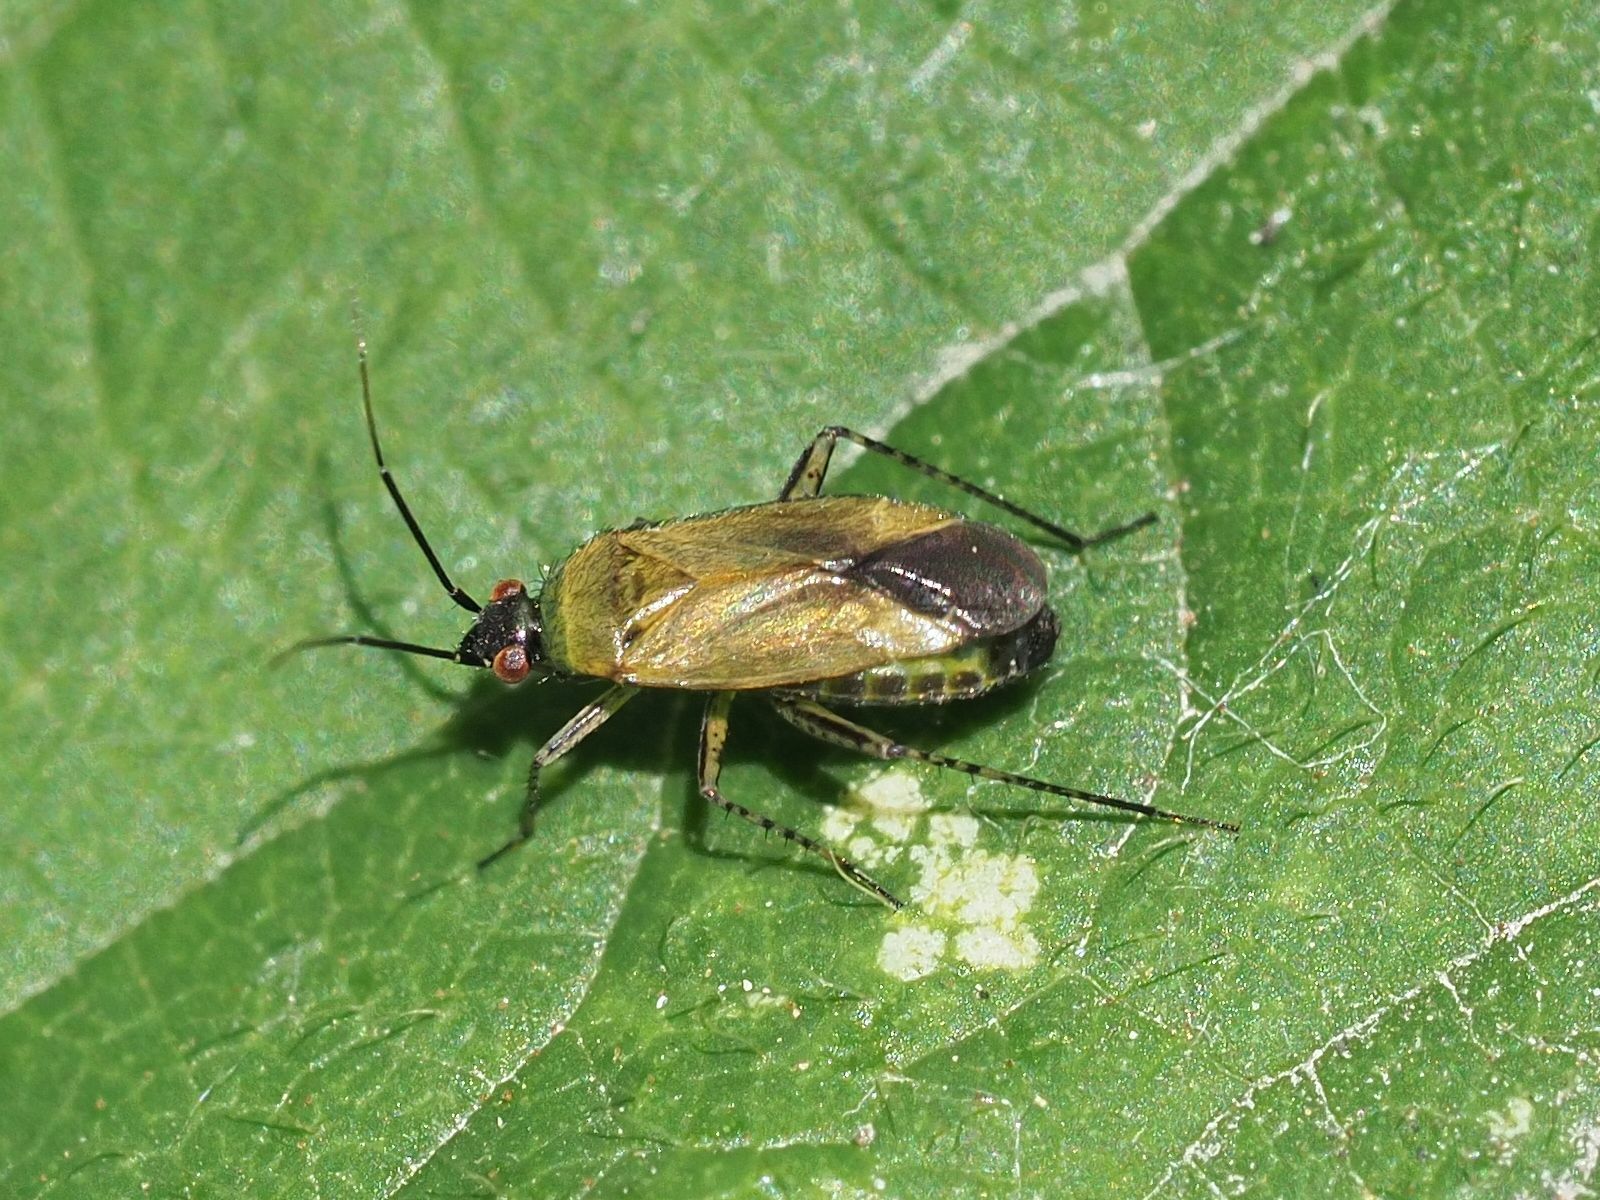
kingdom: Animalia
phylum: Arthropoda
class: Insecta
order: Hemiptera
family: Miridae
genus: Plagiognathus
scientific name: Plagiognathus arbustorum
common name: Plant bug
